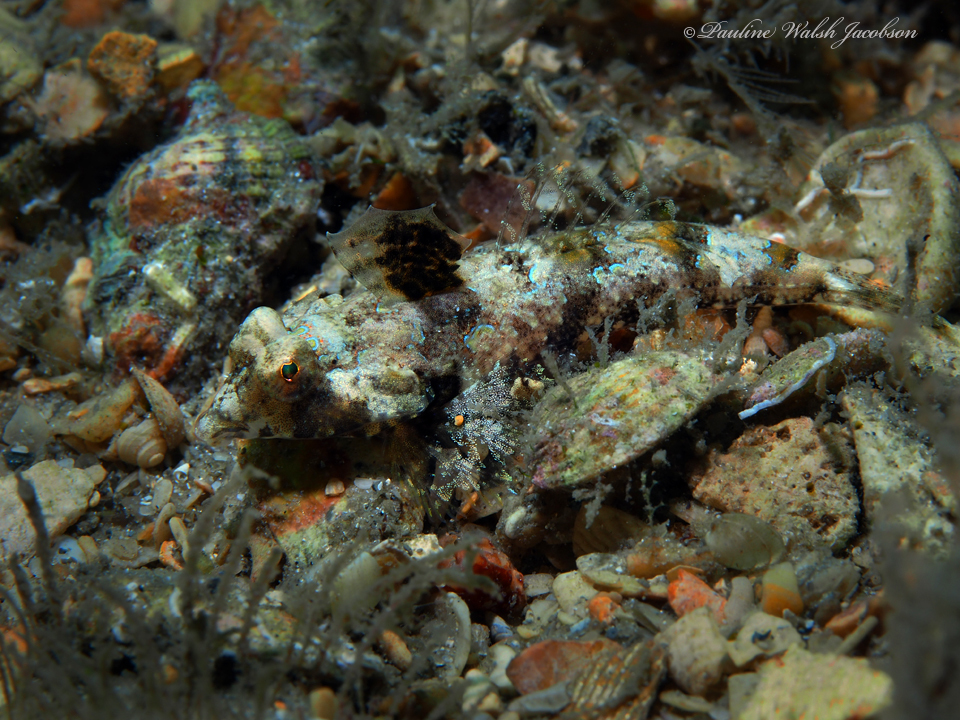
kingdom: Animalia
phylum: Chordata
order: Perciformes
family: Callionymidae
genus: Callionymus
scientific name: Callionymus bairdi
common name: Lancer dragonet
